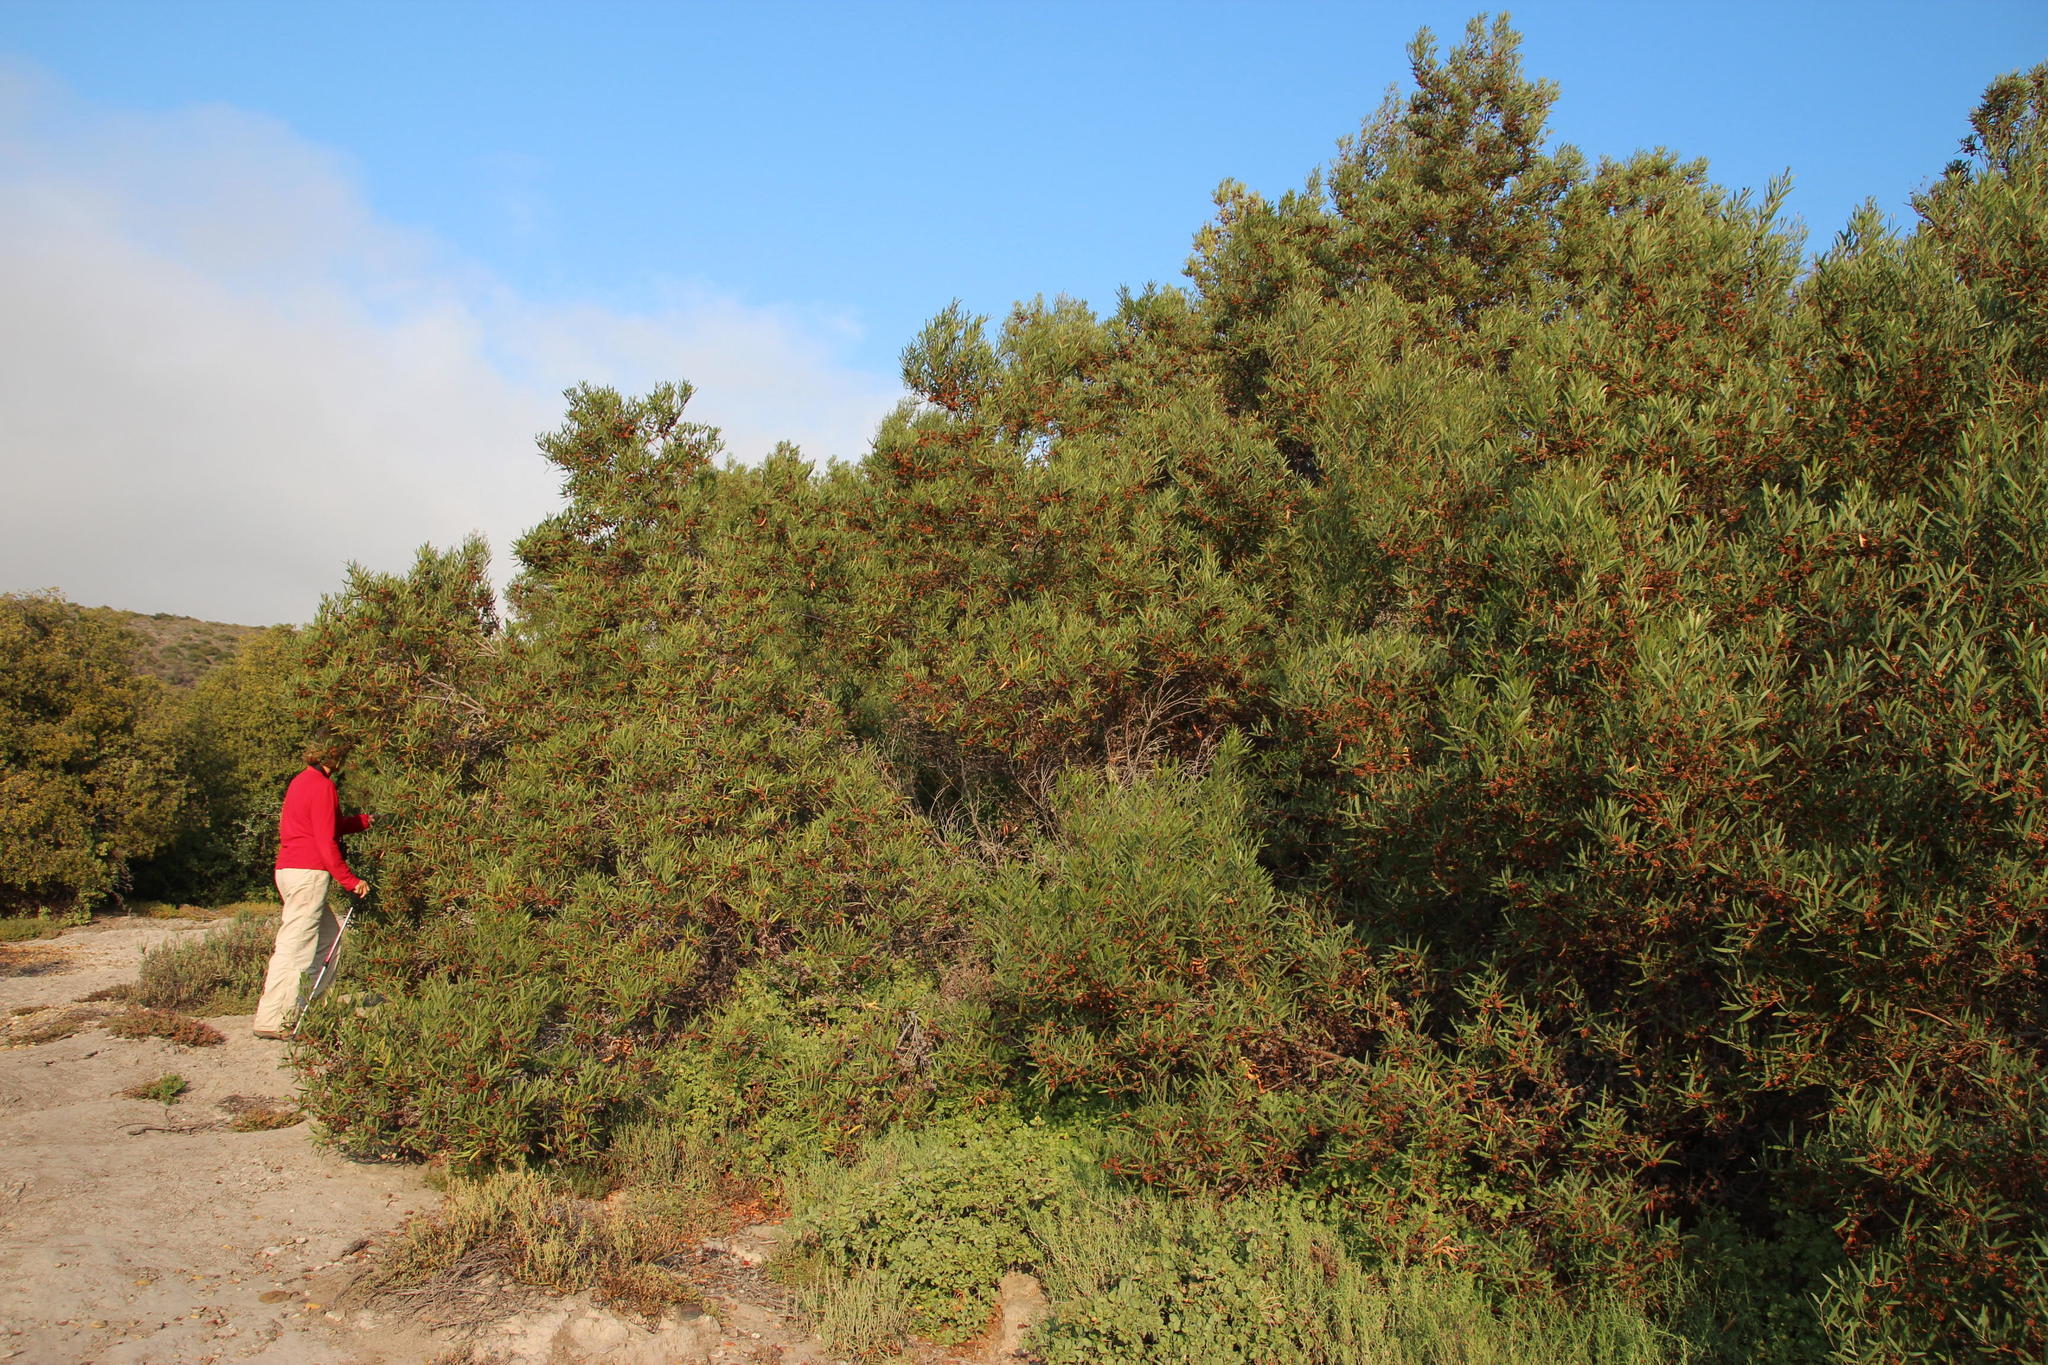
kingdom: Plantae
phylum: Tracheophyta
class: Magnoliopsida
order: Fabales
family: Fabaceae
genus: Acacia
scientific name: Acacia cyclops
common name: Coastal wattle
